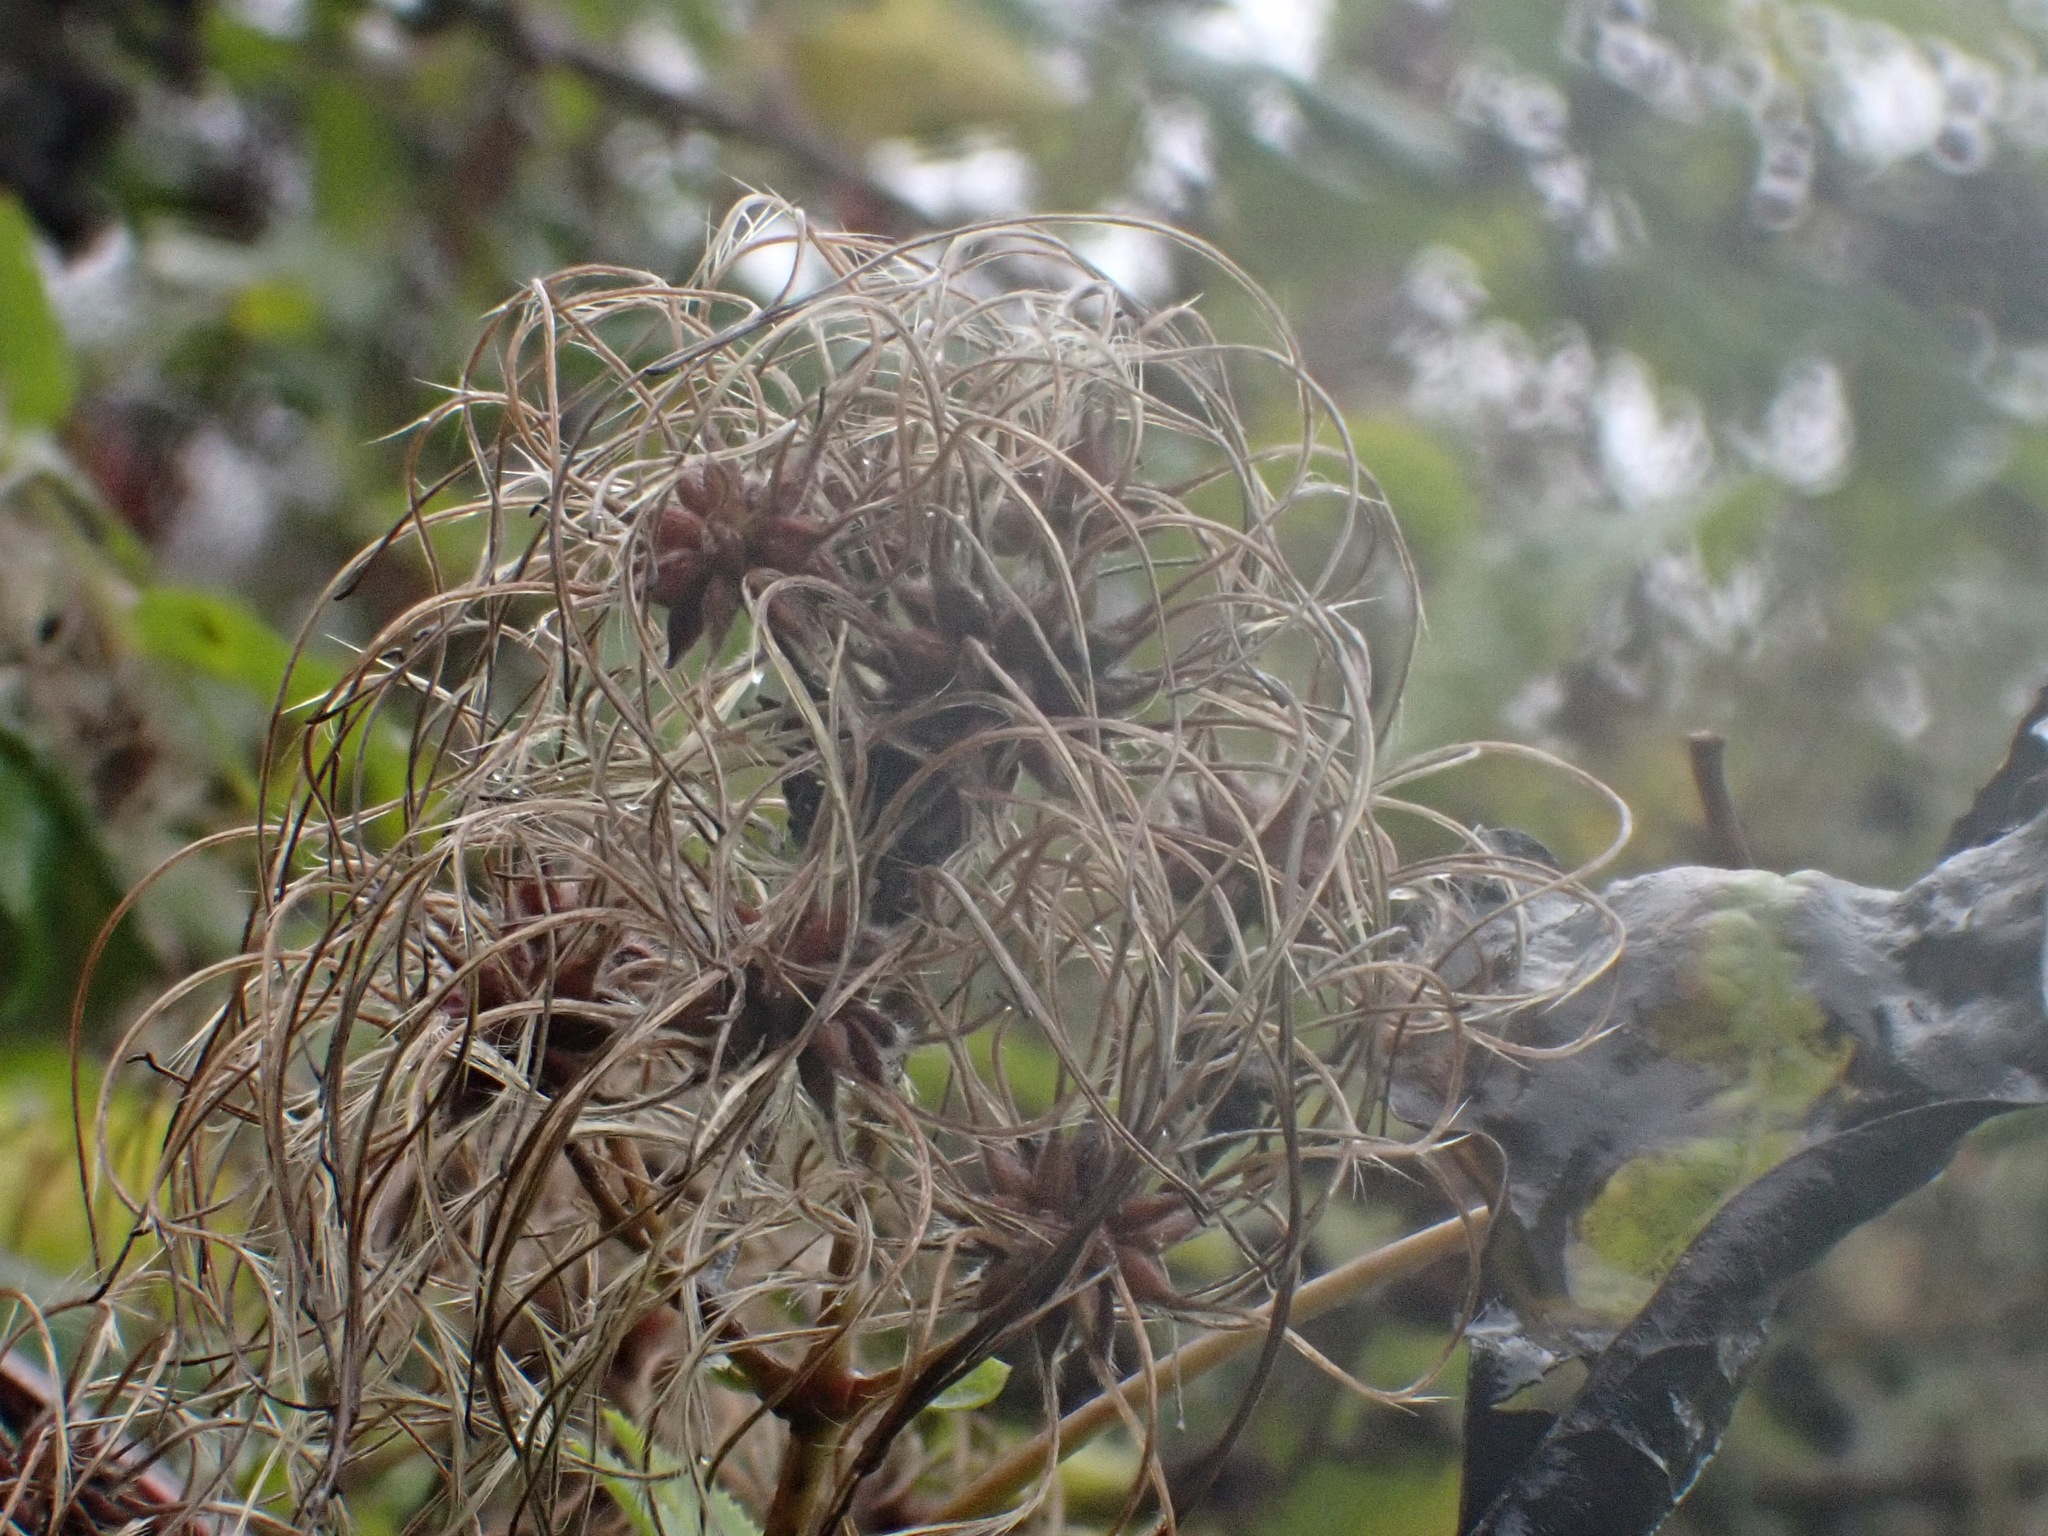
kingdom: Plantae
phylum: Tracheophyta
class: Magnoliopsida
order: Ranunculales
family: Ranunculaceae
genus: Clematis
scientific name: Clematis vitalba
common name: Evergreen clematis
